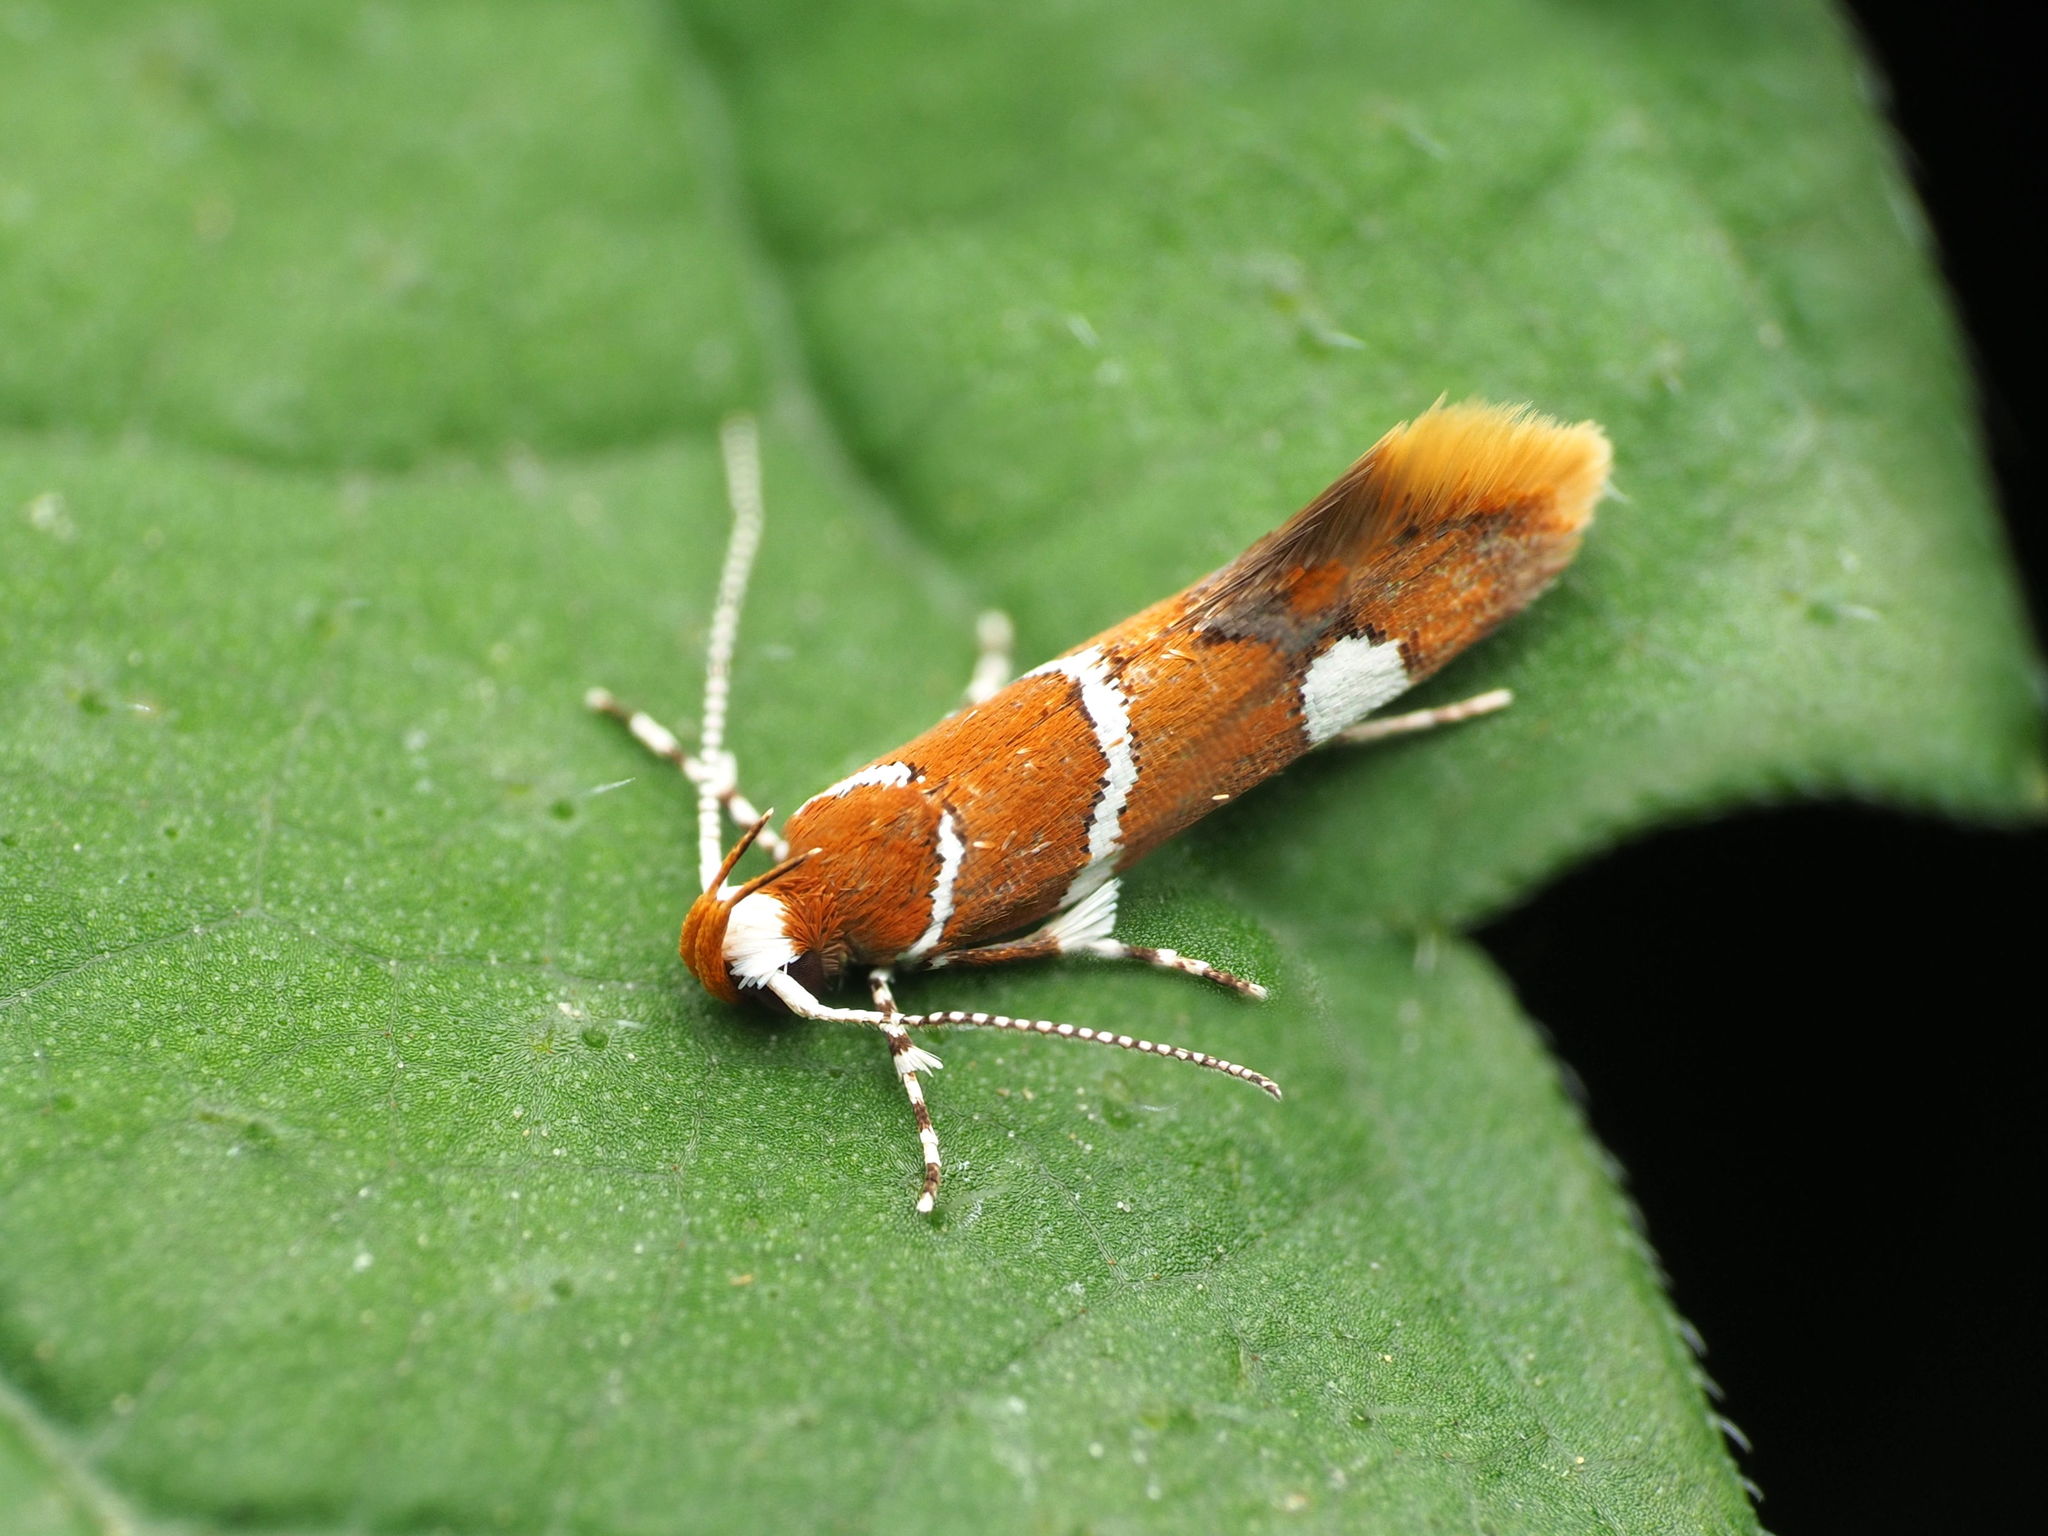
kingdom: Animalia
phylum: Arthropoda
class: Insecta
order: Lepidoptera
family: Oecophoridae
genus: Promalactis
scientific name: Promalactis suzukiella
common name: Moth
